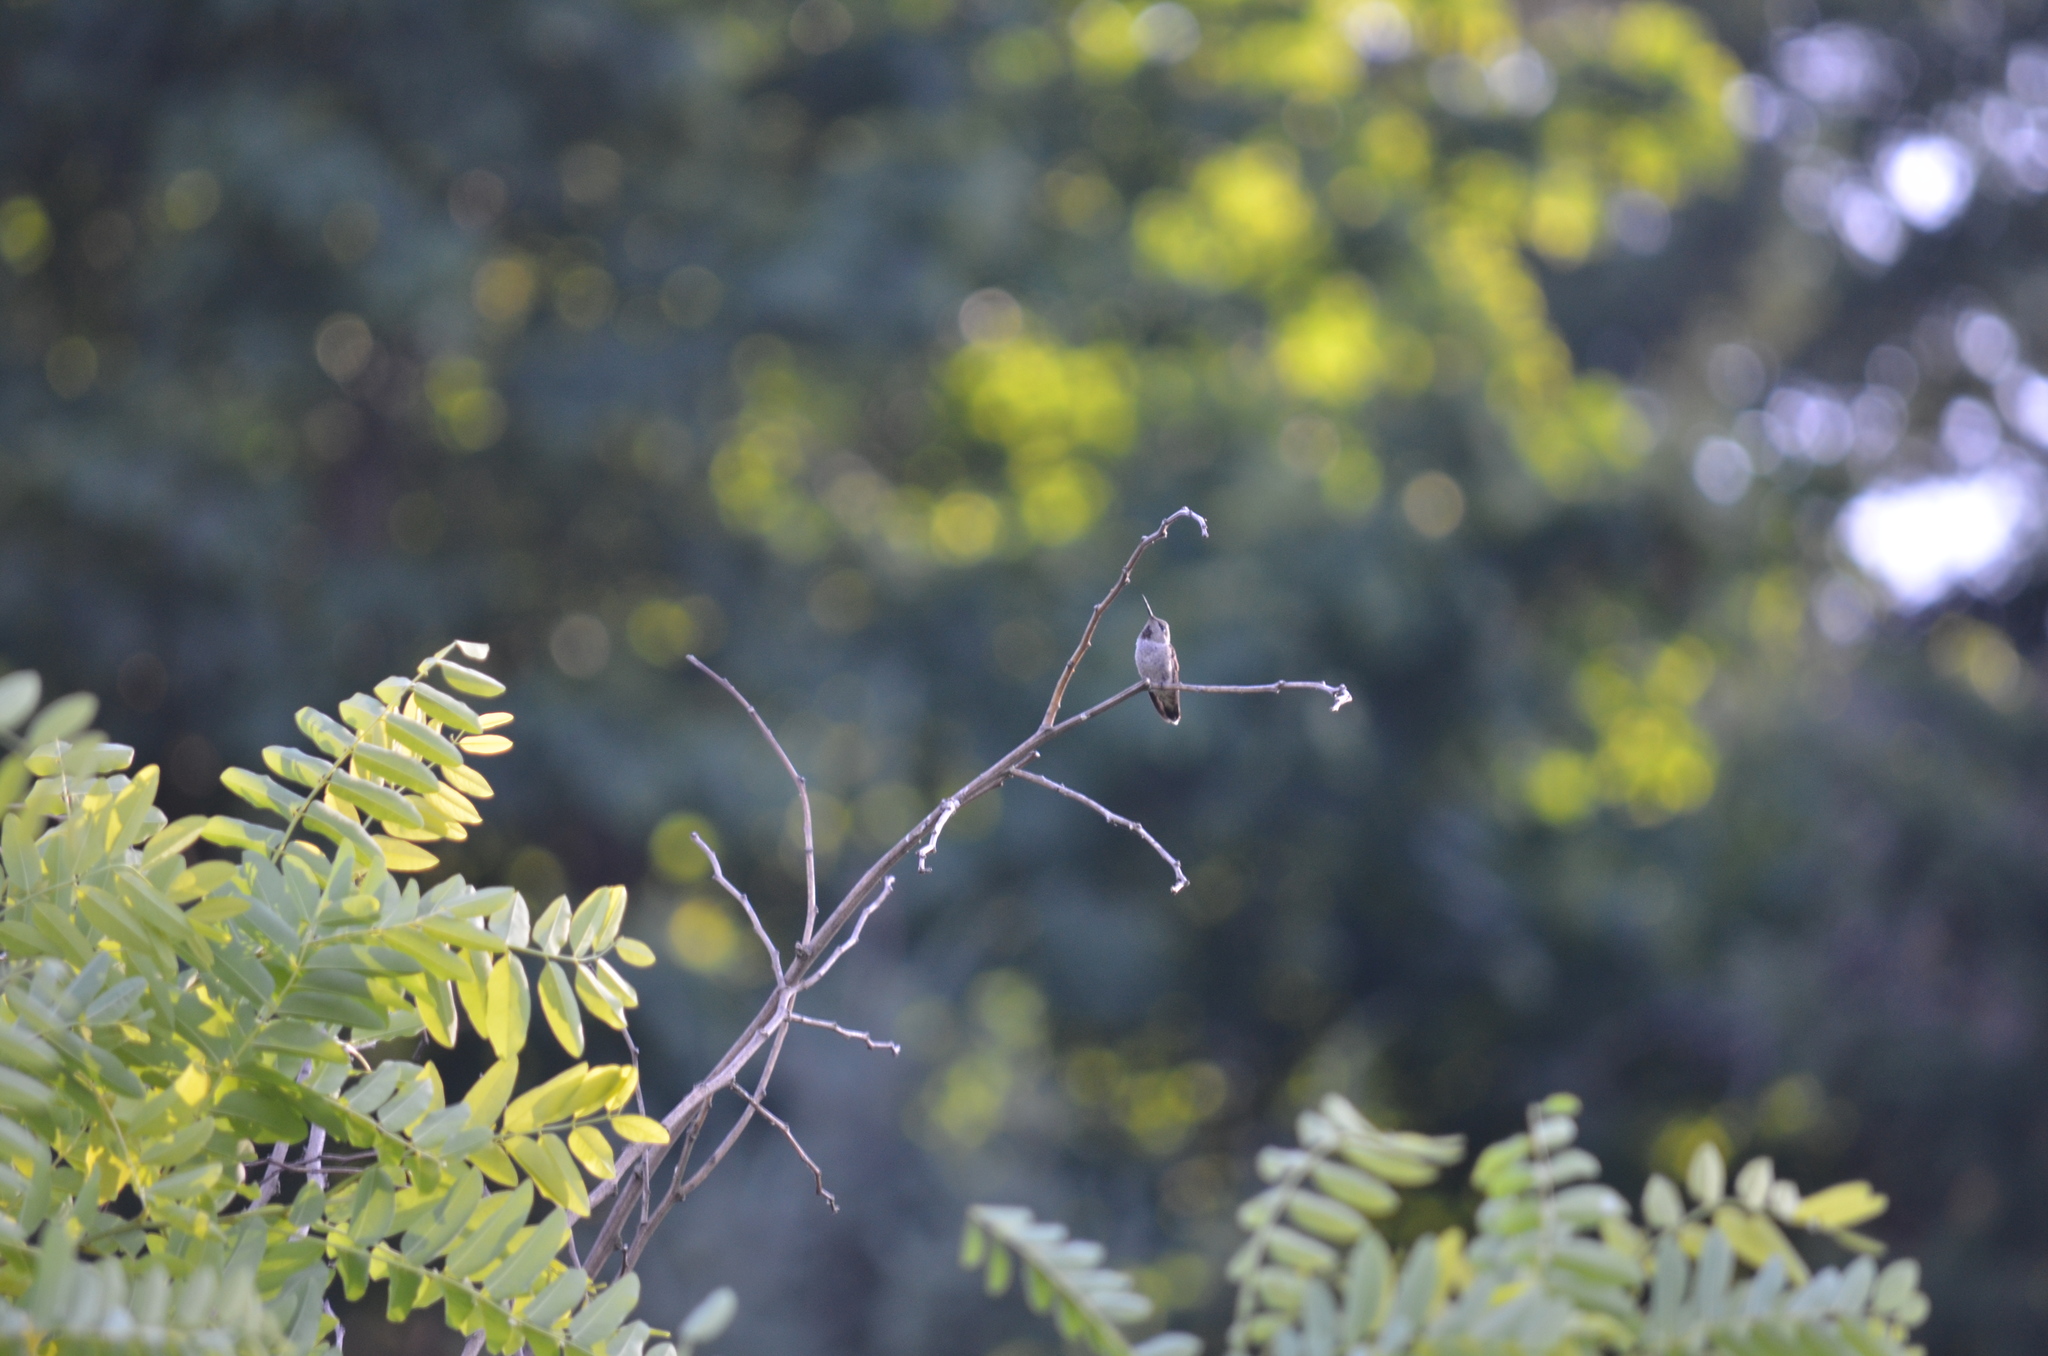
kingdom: Animalia
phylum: Chordata
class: Aves
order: Apodiformes
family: Trochilidae
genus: Calypte
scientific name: Calypte anna
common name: Anna's hummingbird
